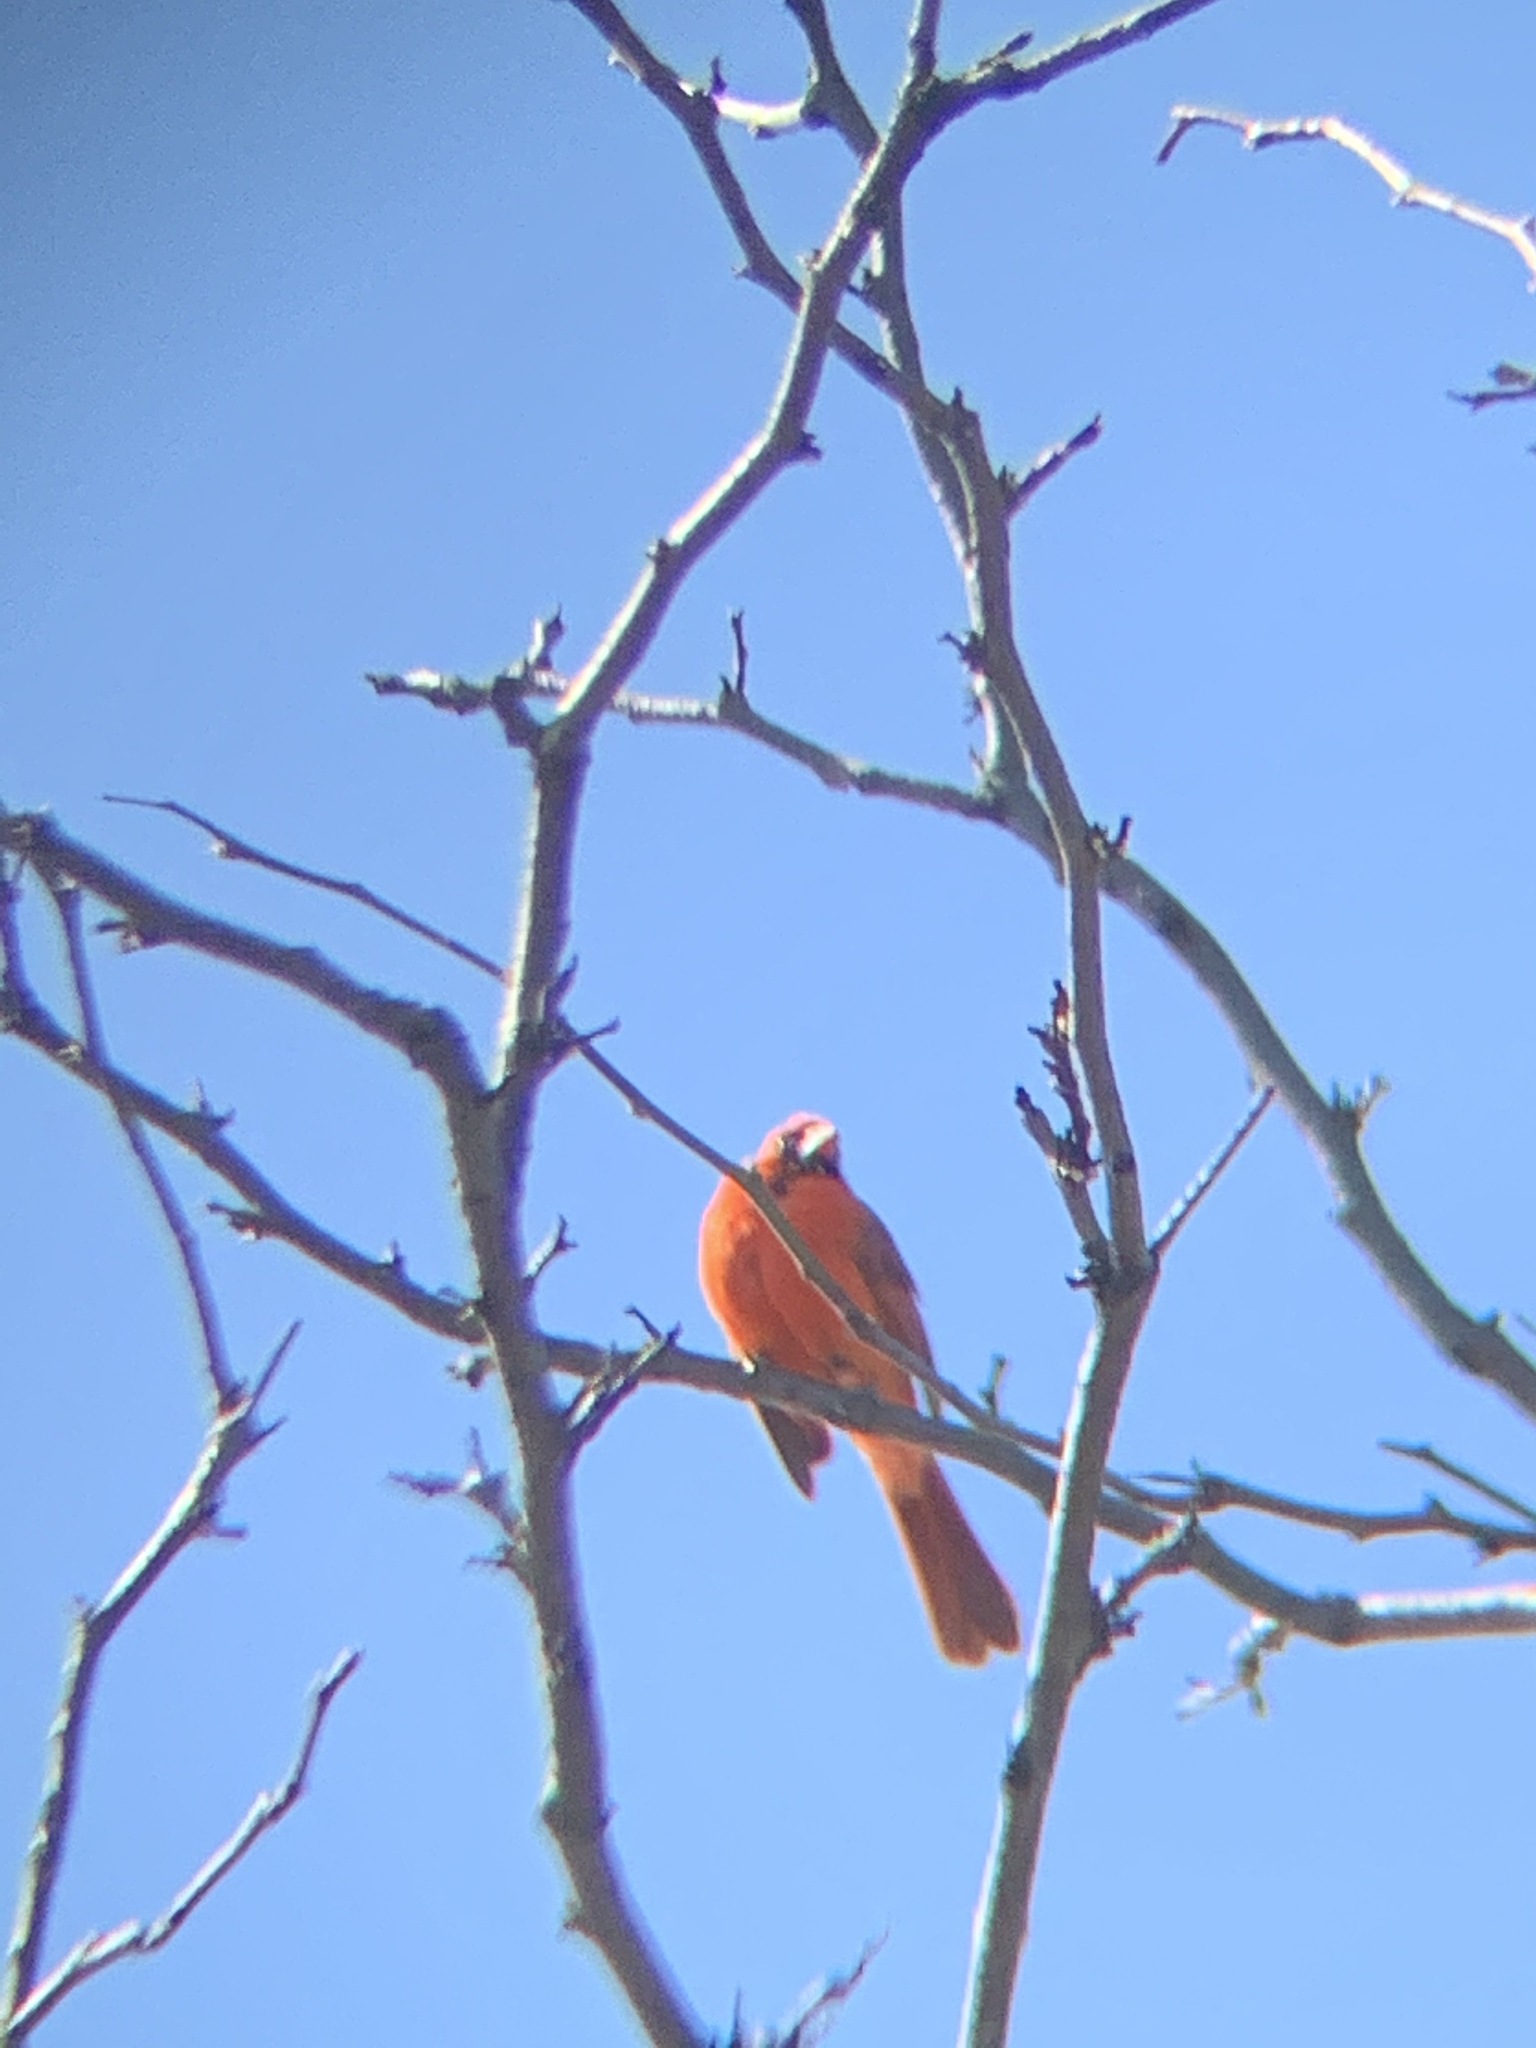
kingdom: Animalia
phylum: Chordata
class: Aves
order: Passeriformes
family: Cardinalidae
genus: Cardinalis
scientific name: Cardinalis cardinalis
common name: Northern cardinal
